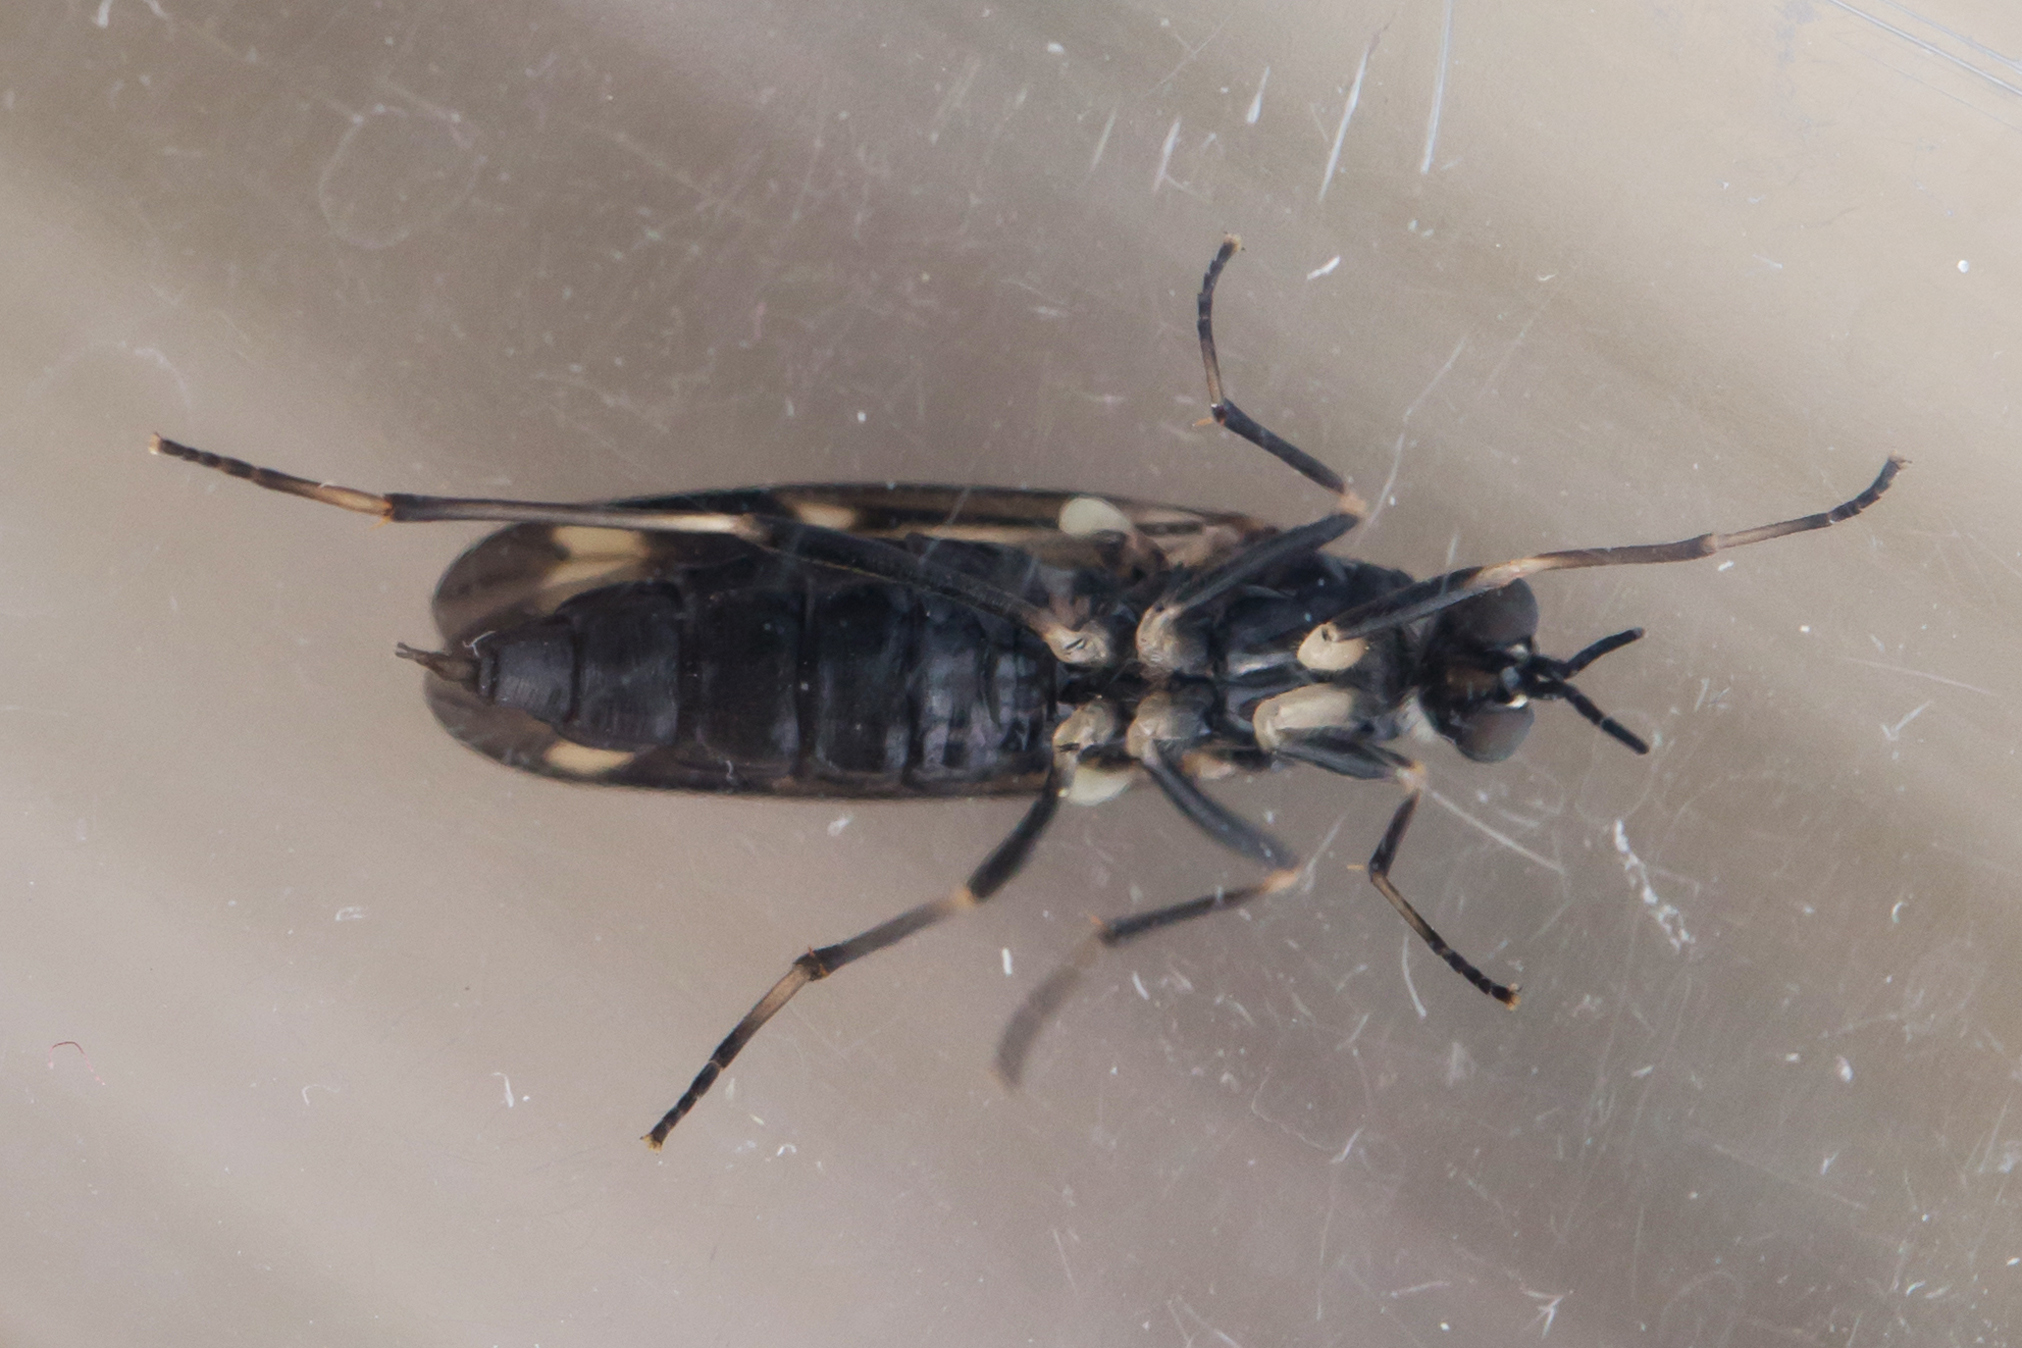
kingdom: Animalia
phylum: Arthropoda
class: Insecta
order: Diptera
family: Xylophagidae
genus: Xylophagus
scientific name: Xylophagus lugens
